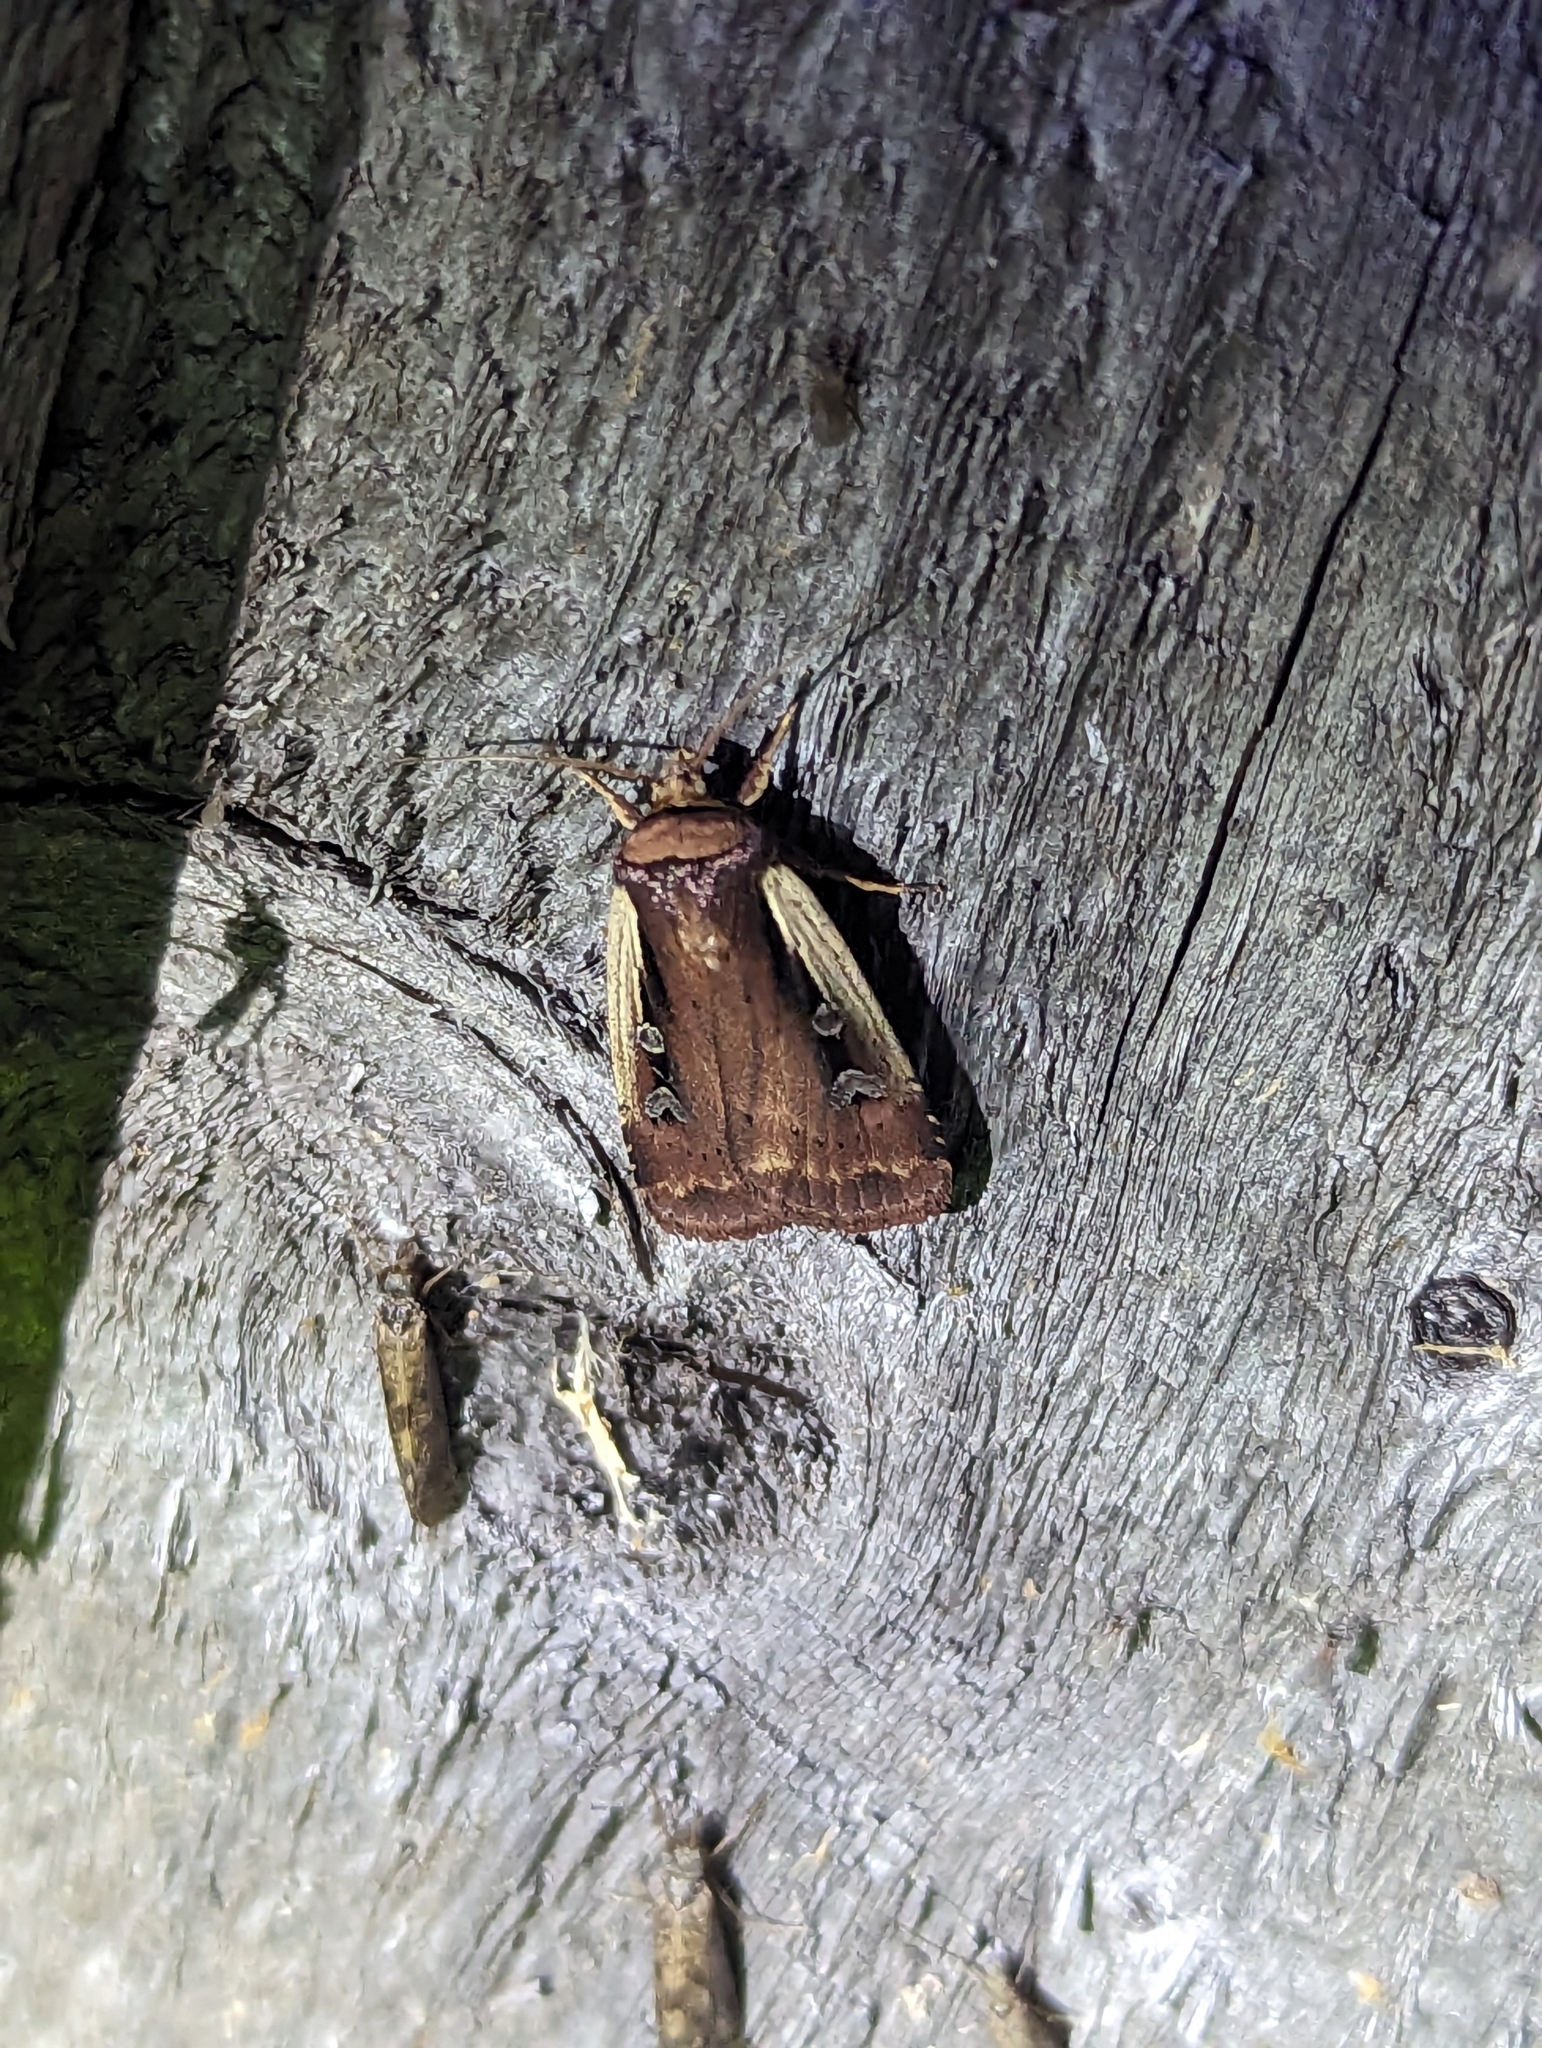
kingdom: Animalia
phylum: Arthropoda
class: Insecta
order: Lepidoptera
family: Noctuidae
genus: Ochropleura
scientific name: Ochropleura implecta
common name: Flame-shouldered dart
